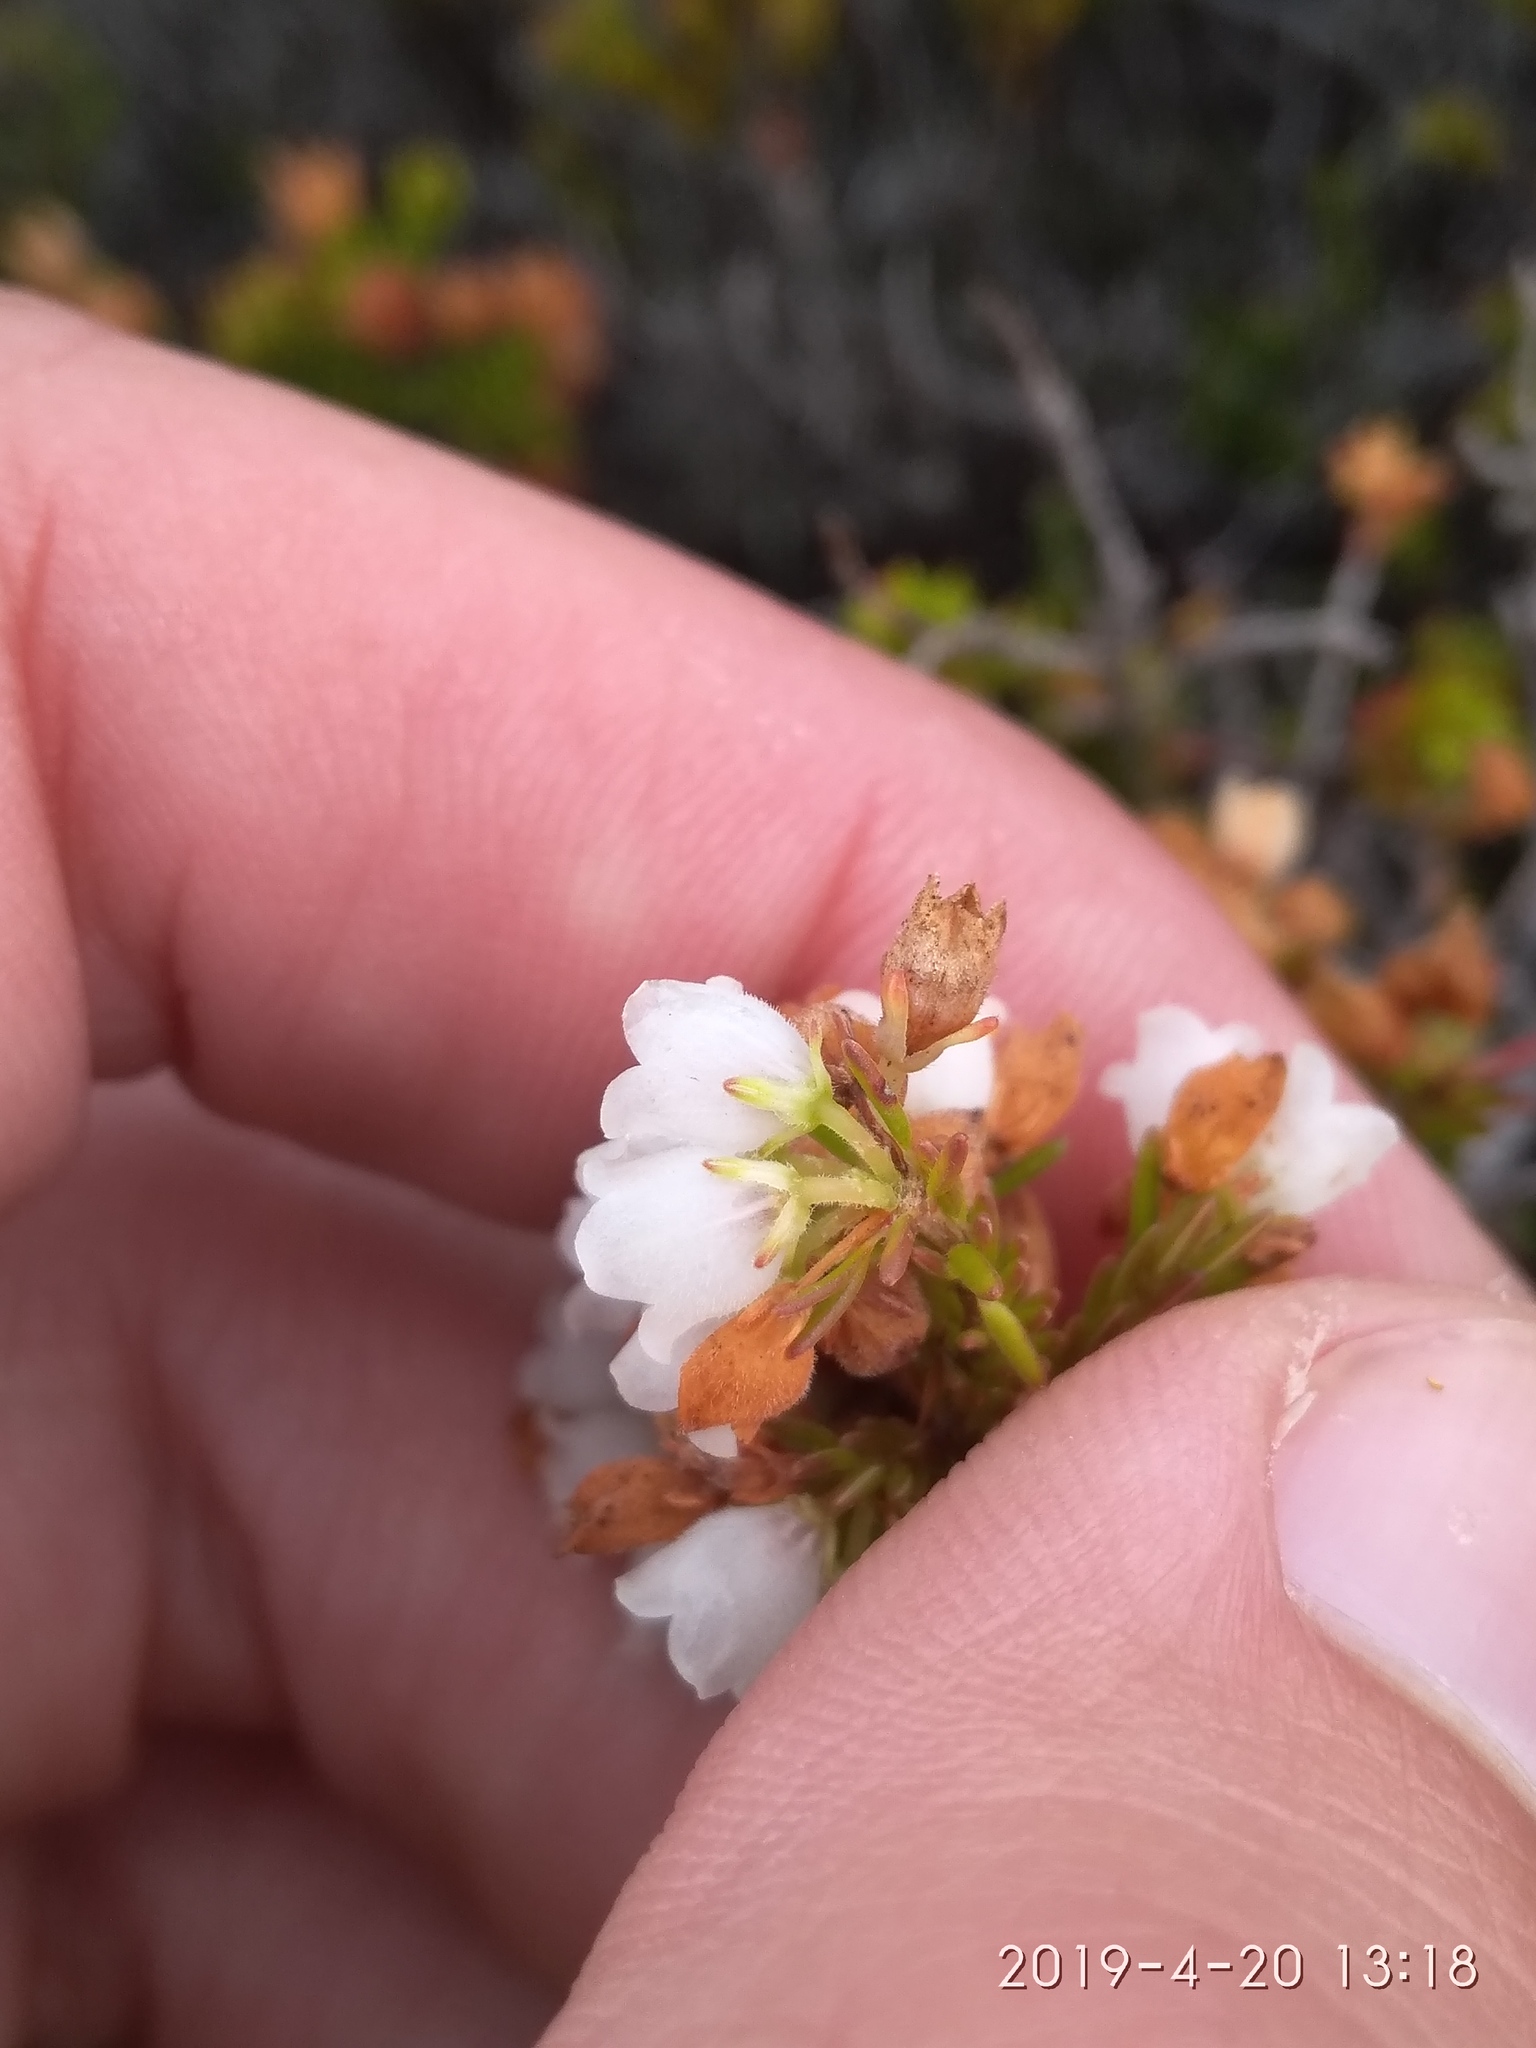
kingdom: Plantae
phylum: Tracheophyta
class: Magnoliopsida
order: Ericales
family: Ericaceae
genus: Erica
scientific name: Erica subdivaricata
